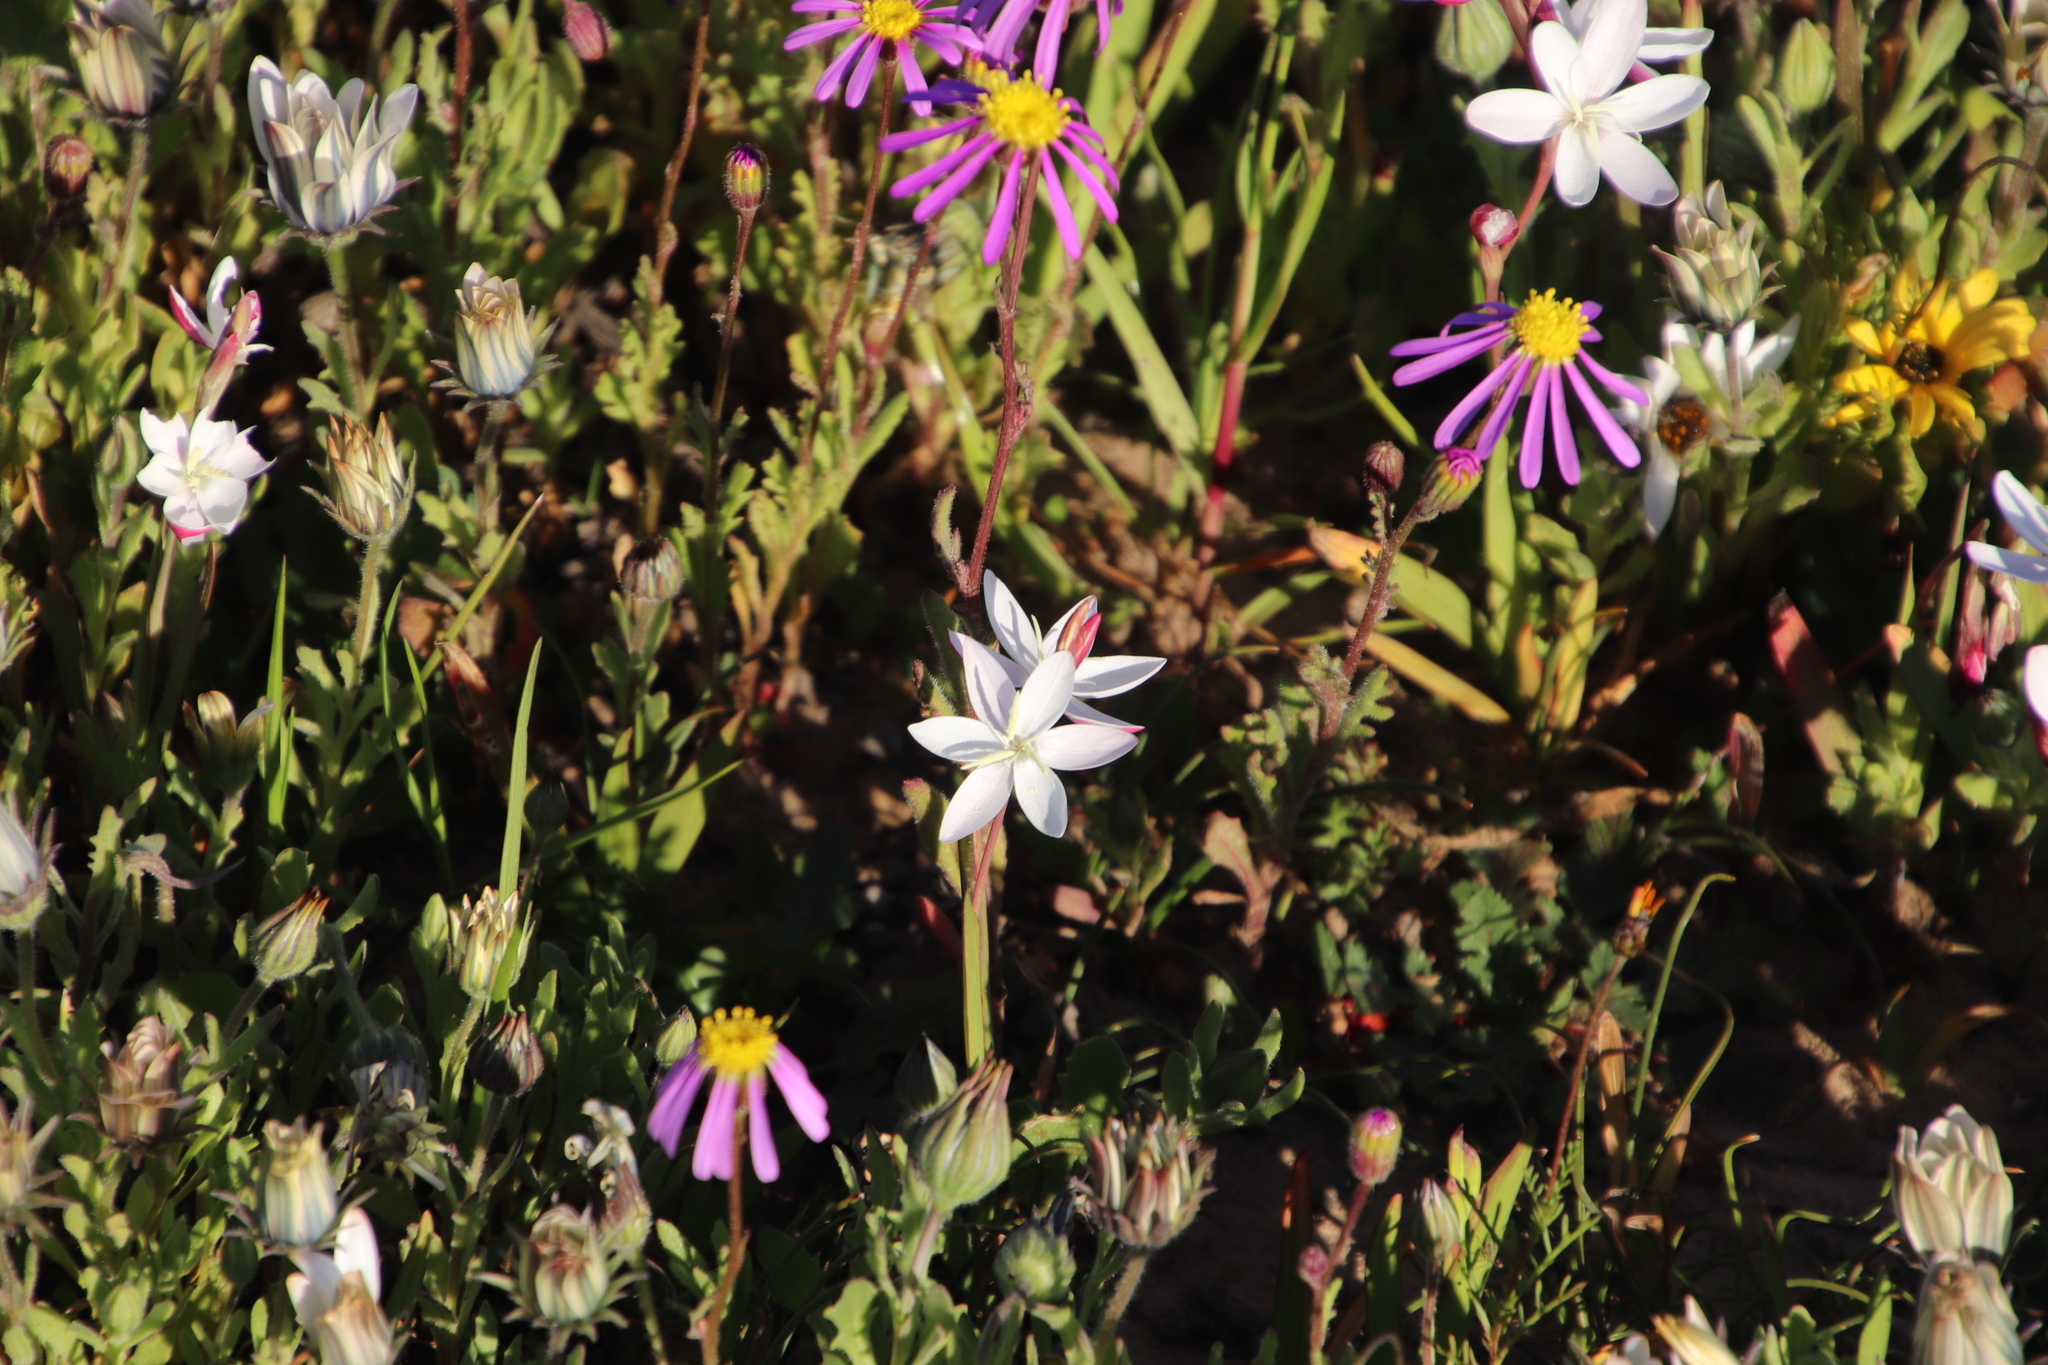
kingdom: Plantae
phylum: Tracheophyta
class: Liliopsida
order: Asparagales
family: Iridaceae
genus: Hesperantha
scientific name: Hesperantha cucullata
